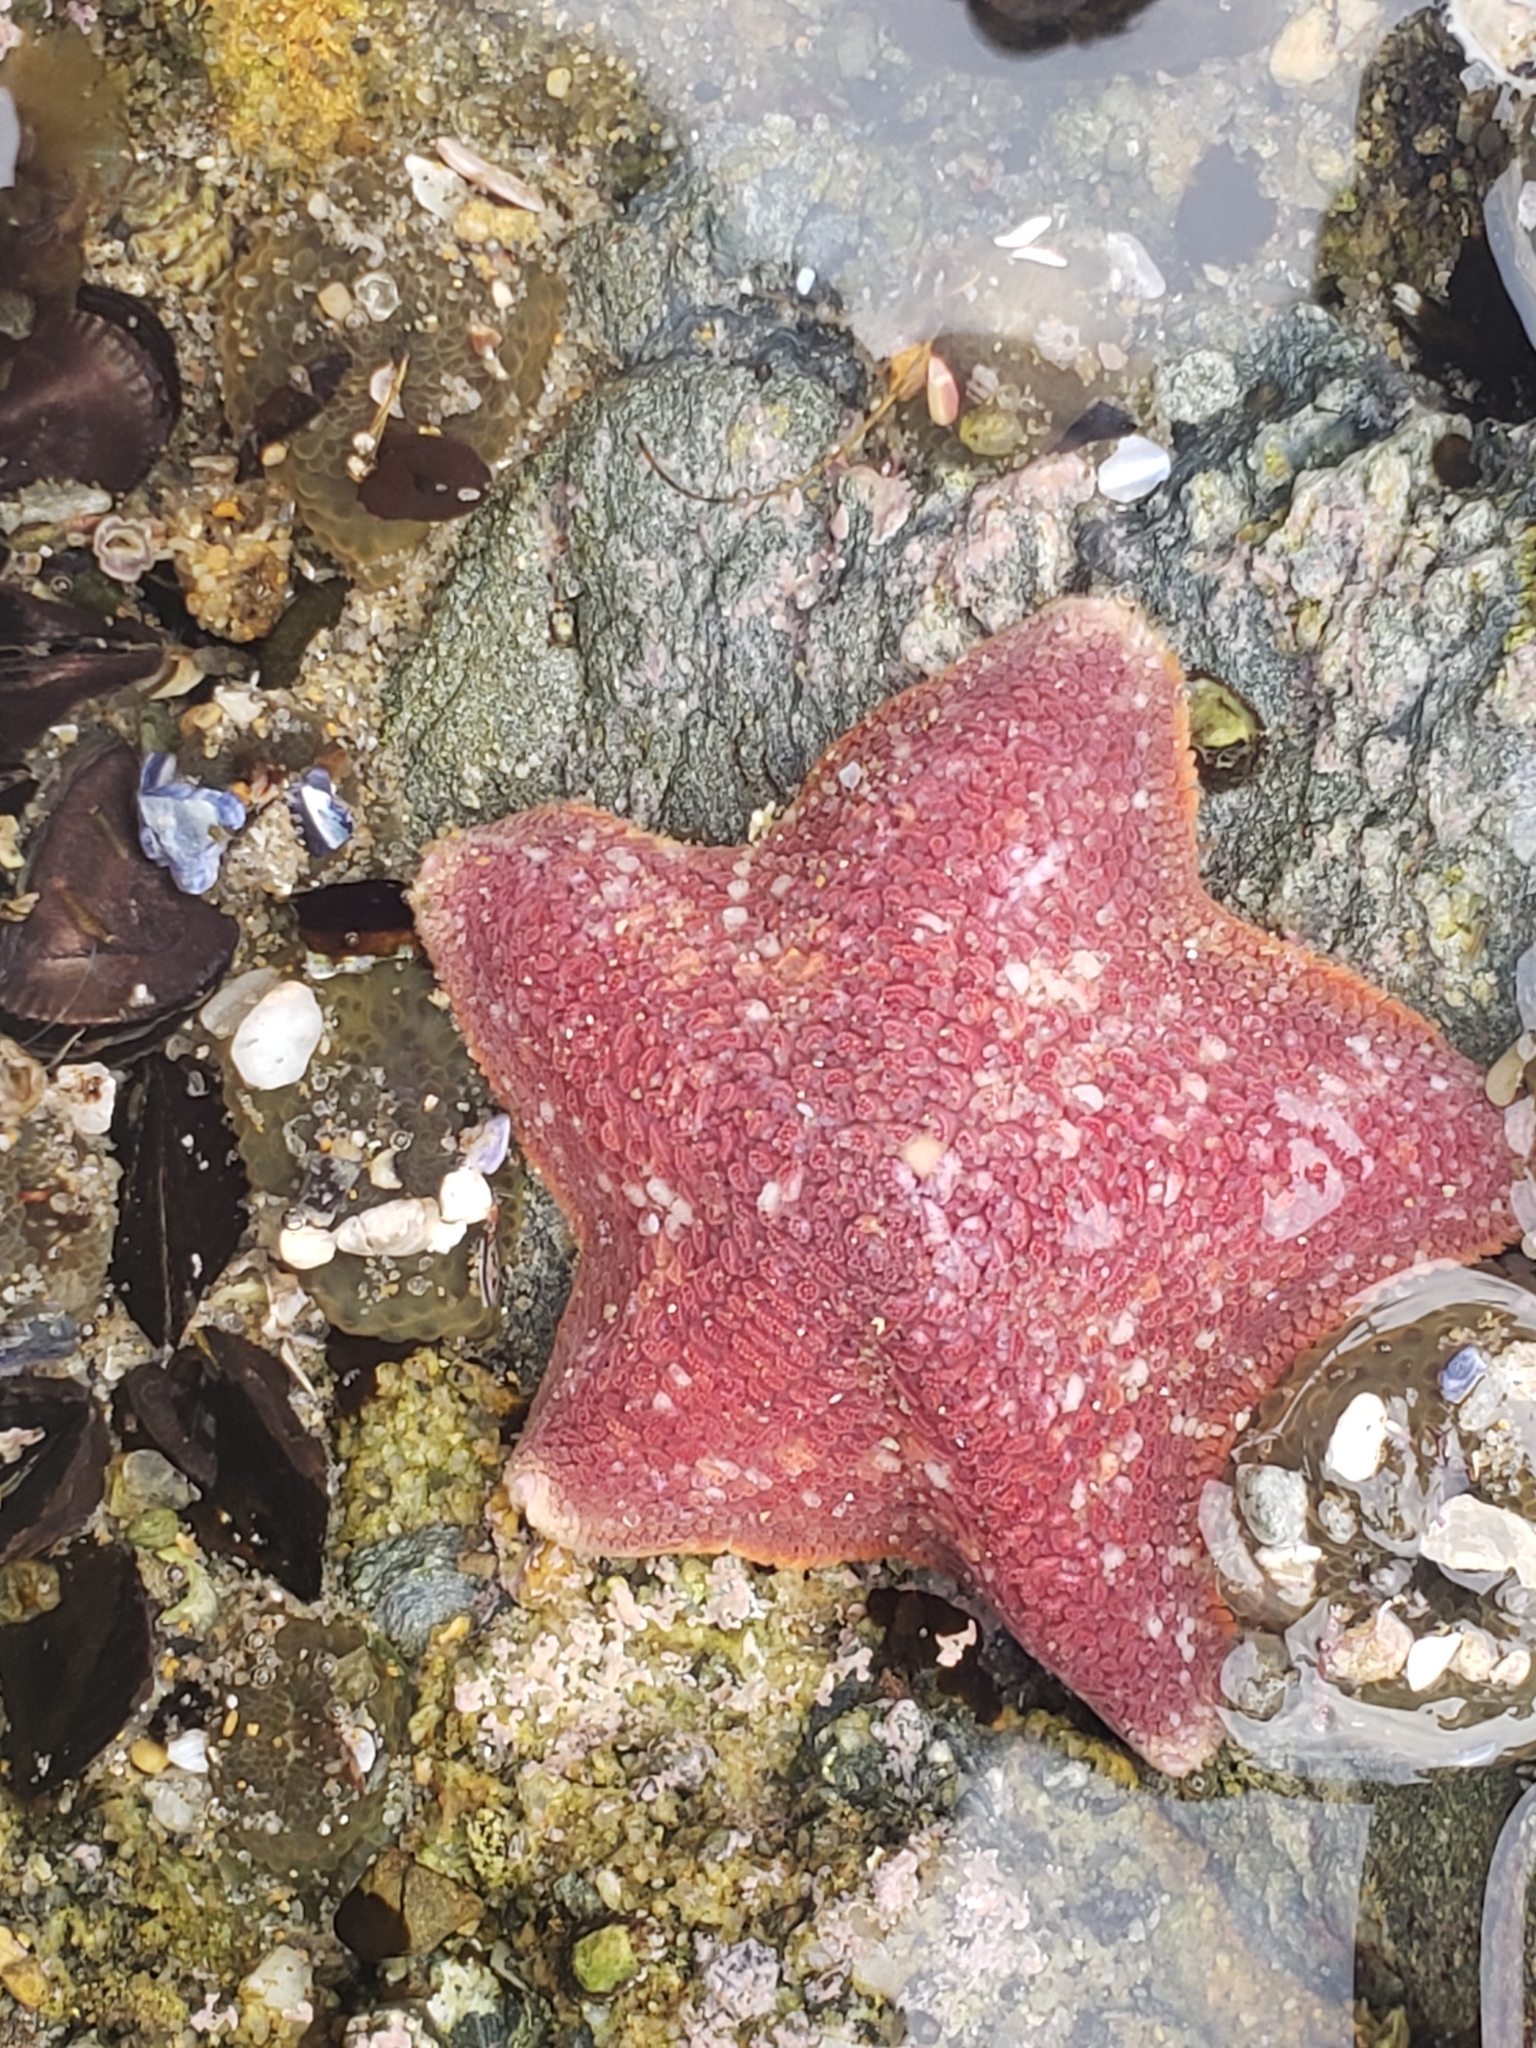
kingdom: Animalia
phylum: Echinodermata
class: Asteroidea
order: Valvatida
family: Asterinidae
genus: Patiria
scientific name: Patiria miniata
